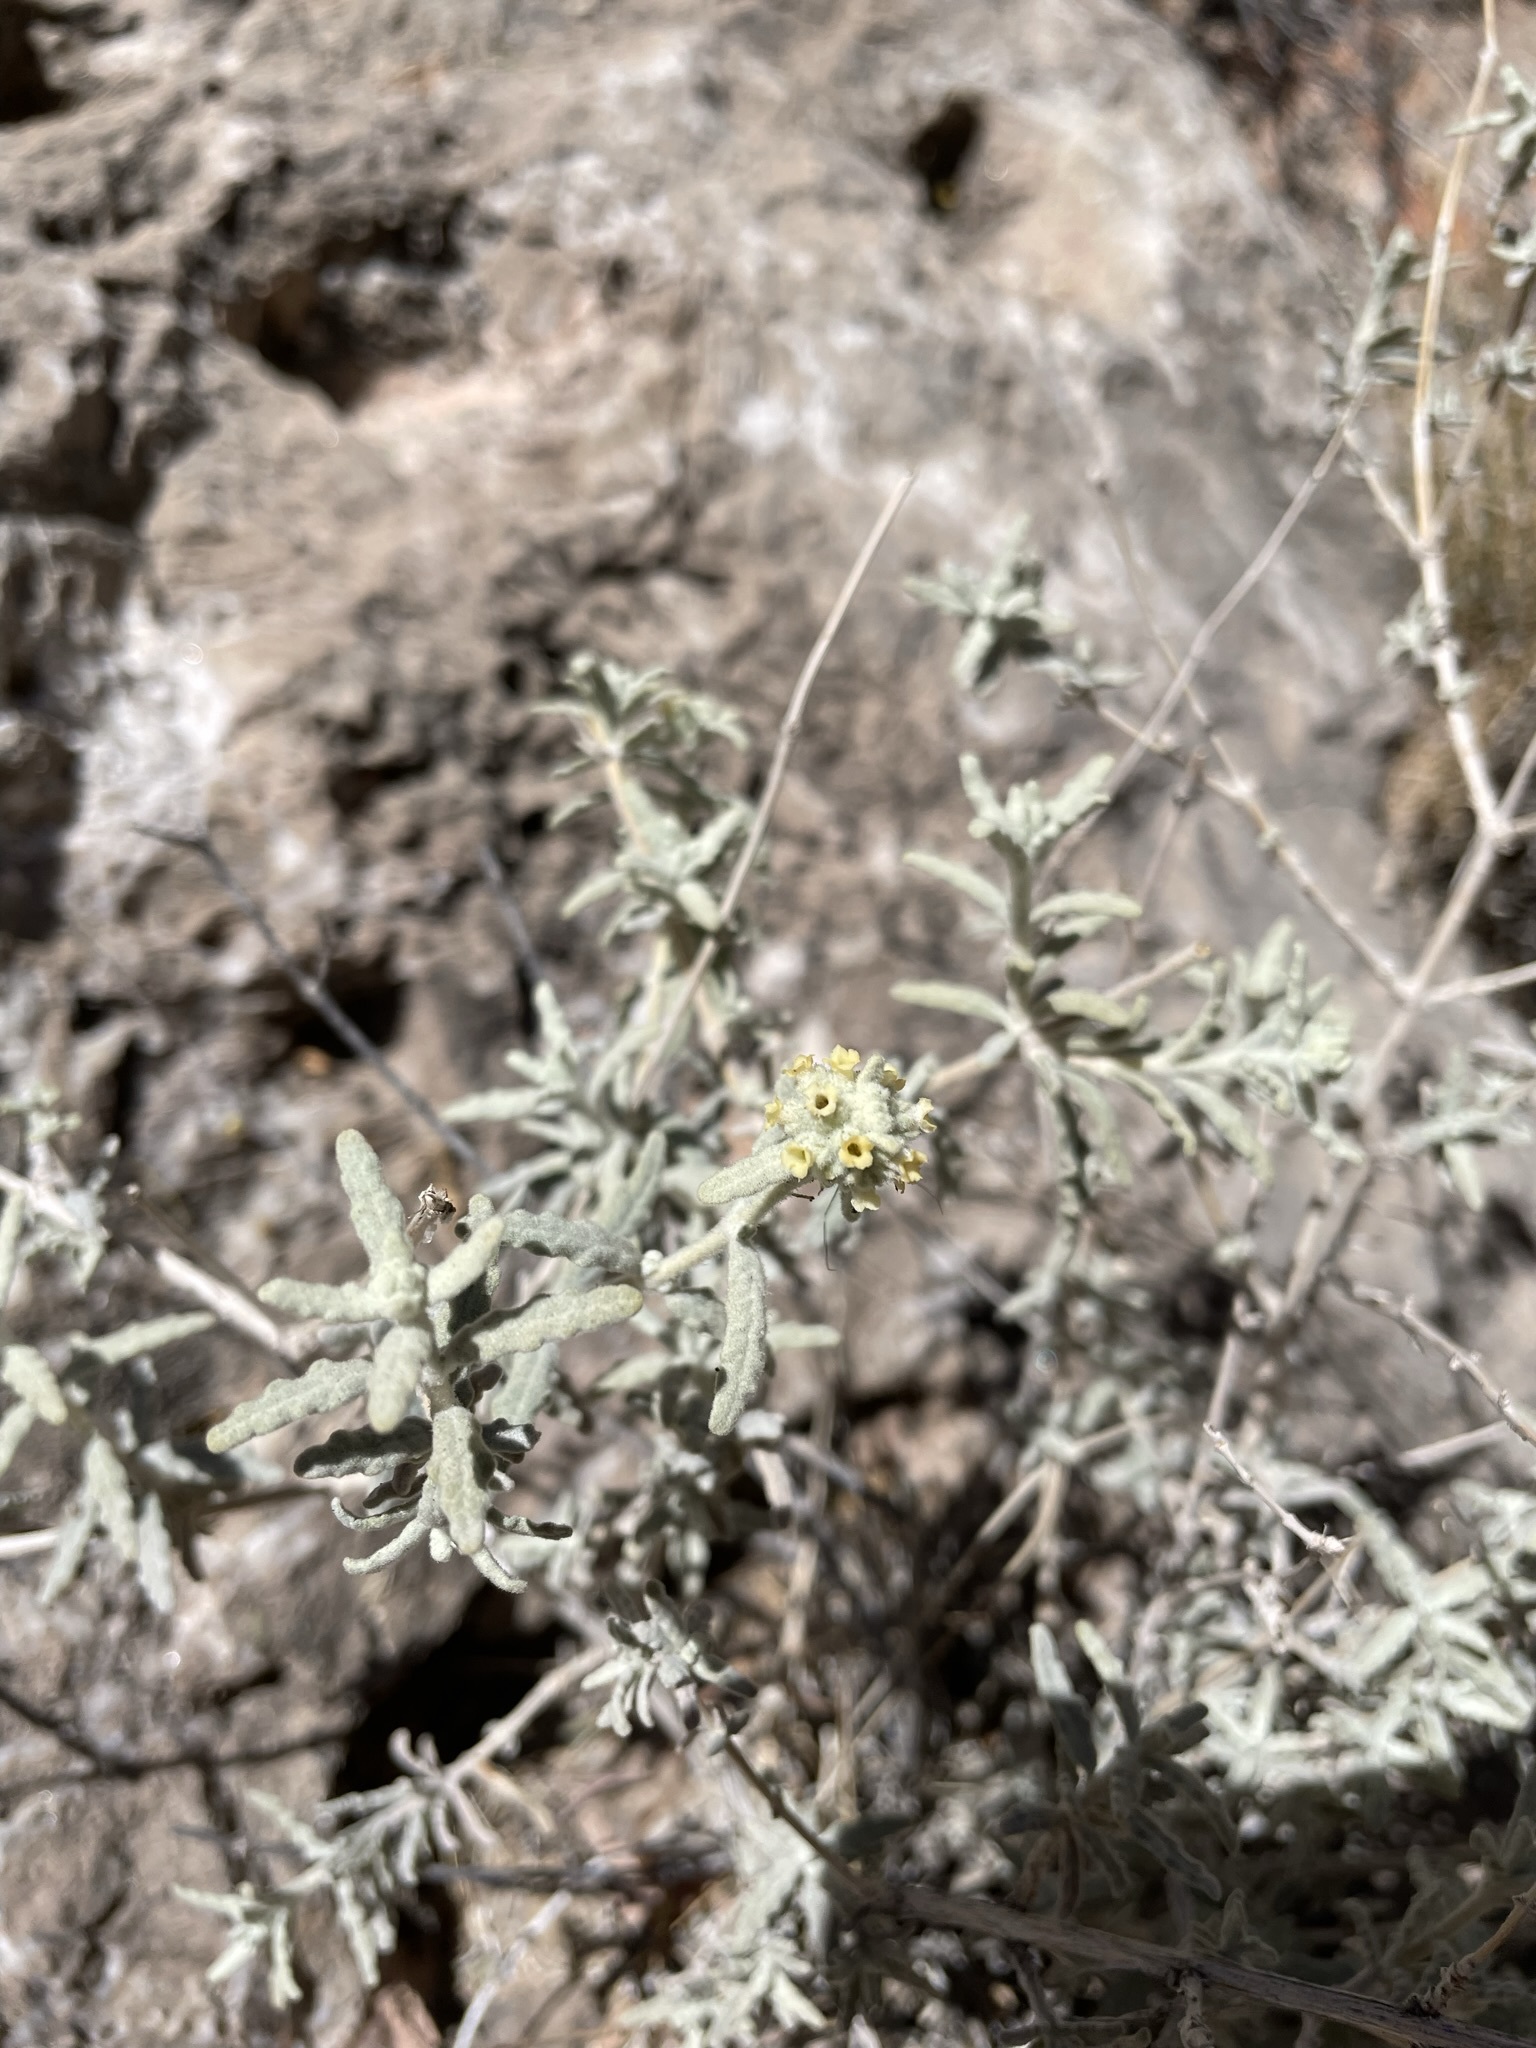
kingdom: Plantae
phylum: Tracheophyta
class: Magnoliopsida
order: Lamiales
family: Scrophulariaceae
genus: Buddleja
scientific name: Buddleja utahensis
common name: Utah butterfly-bush
